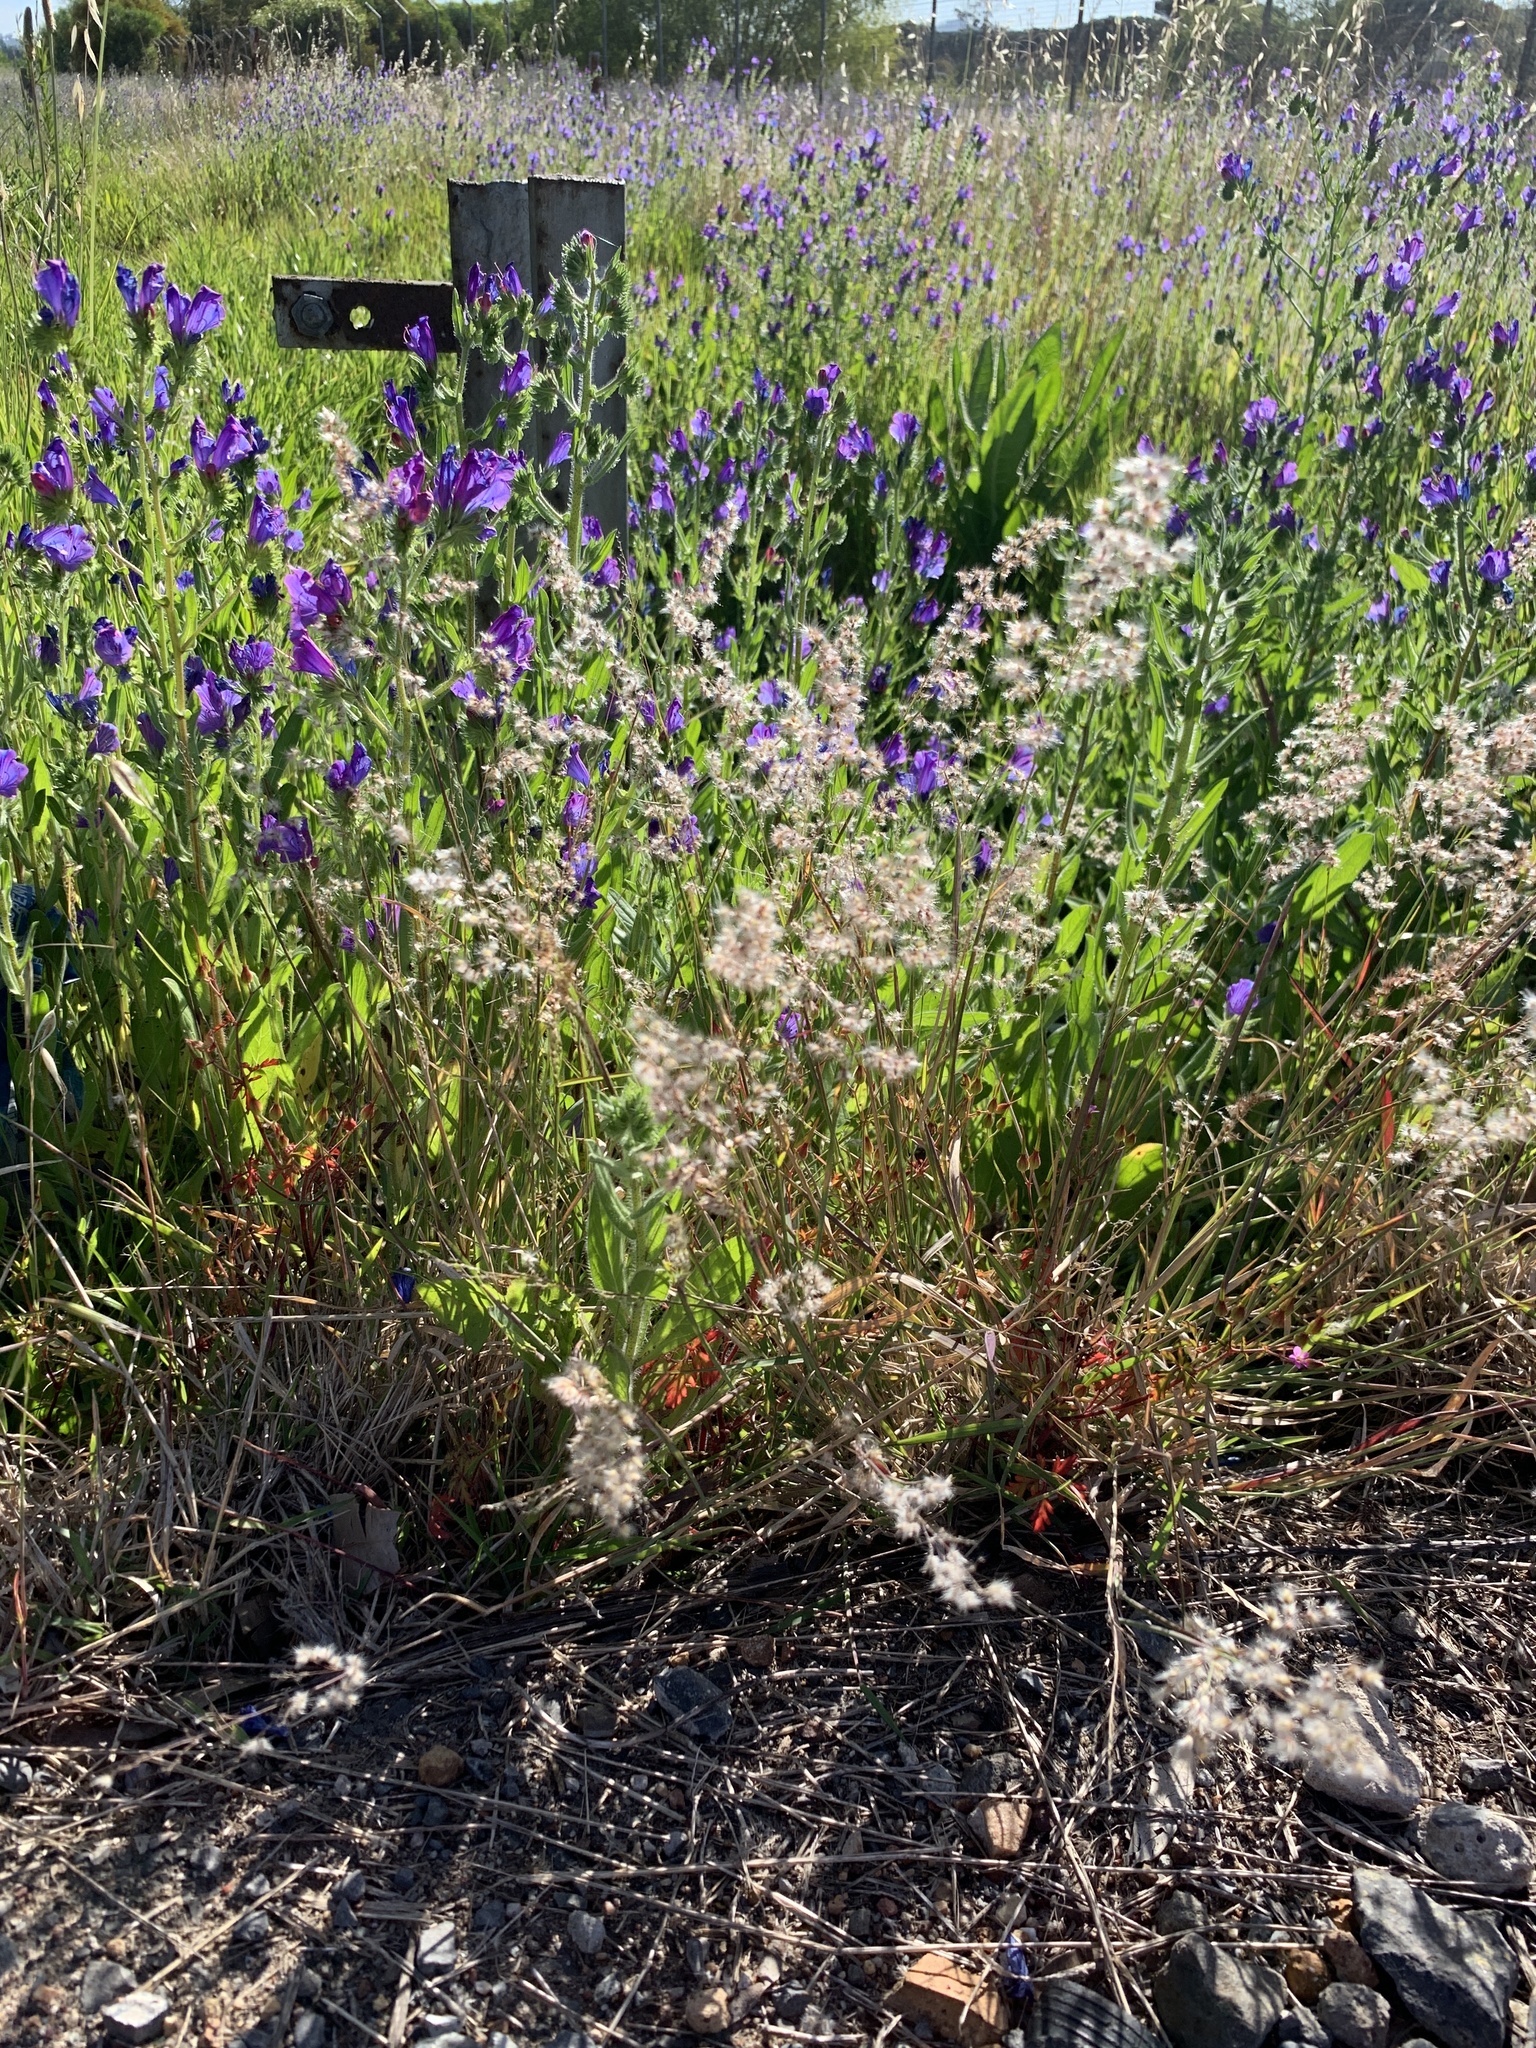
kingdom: Plantae
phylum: Tracheophyta
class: Liliopsida
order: Poales
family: Poaceae
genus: Melinis
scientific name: Melinis repens
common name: Rose natal grass
